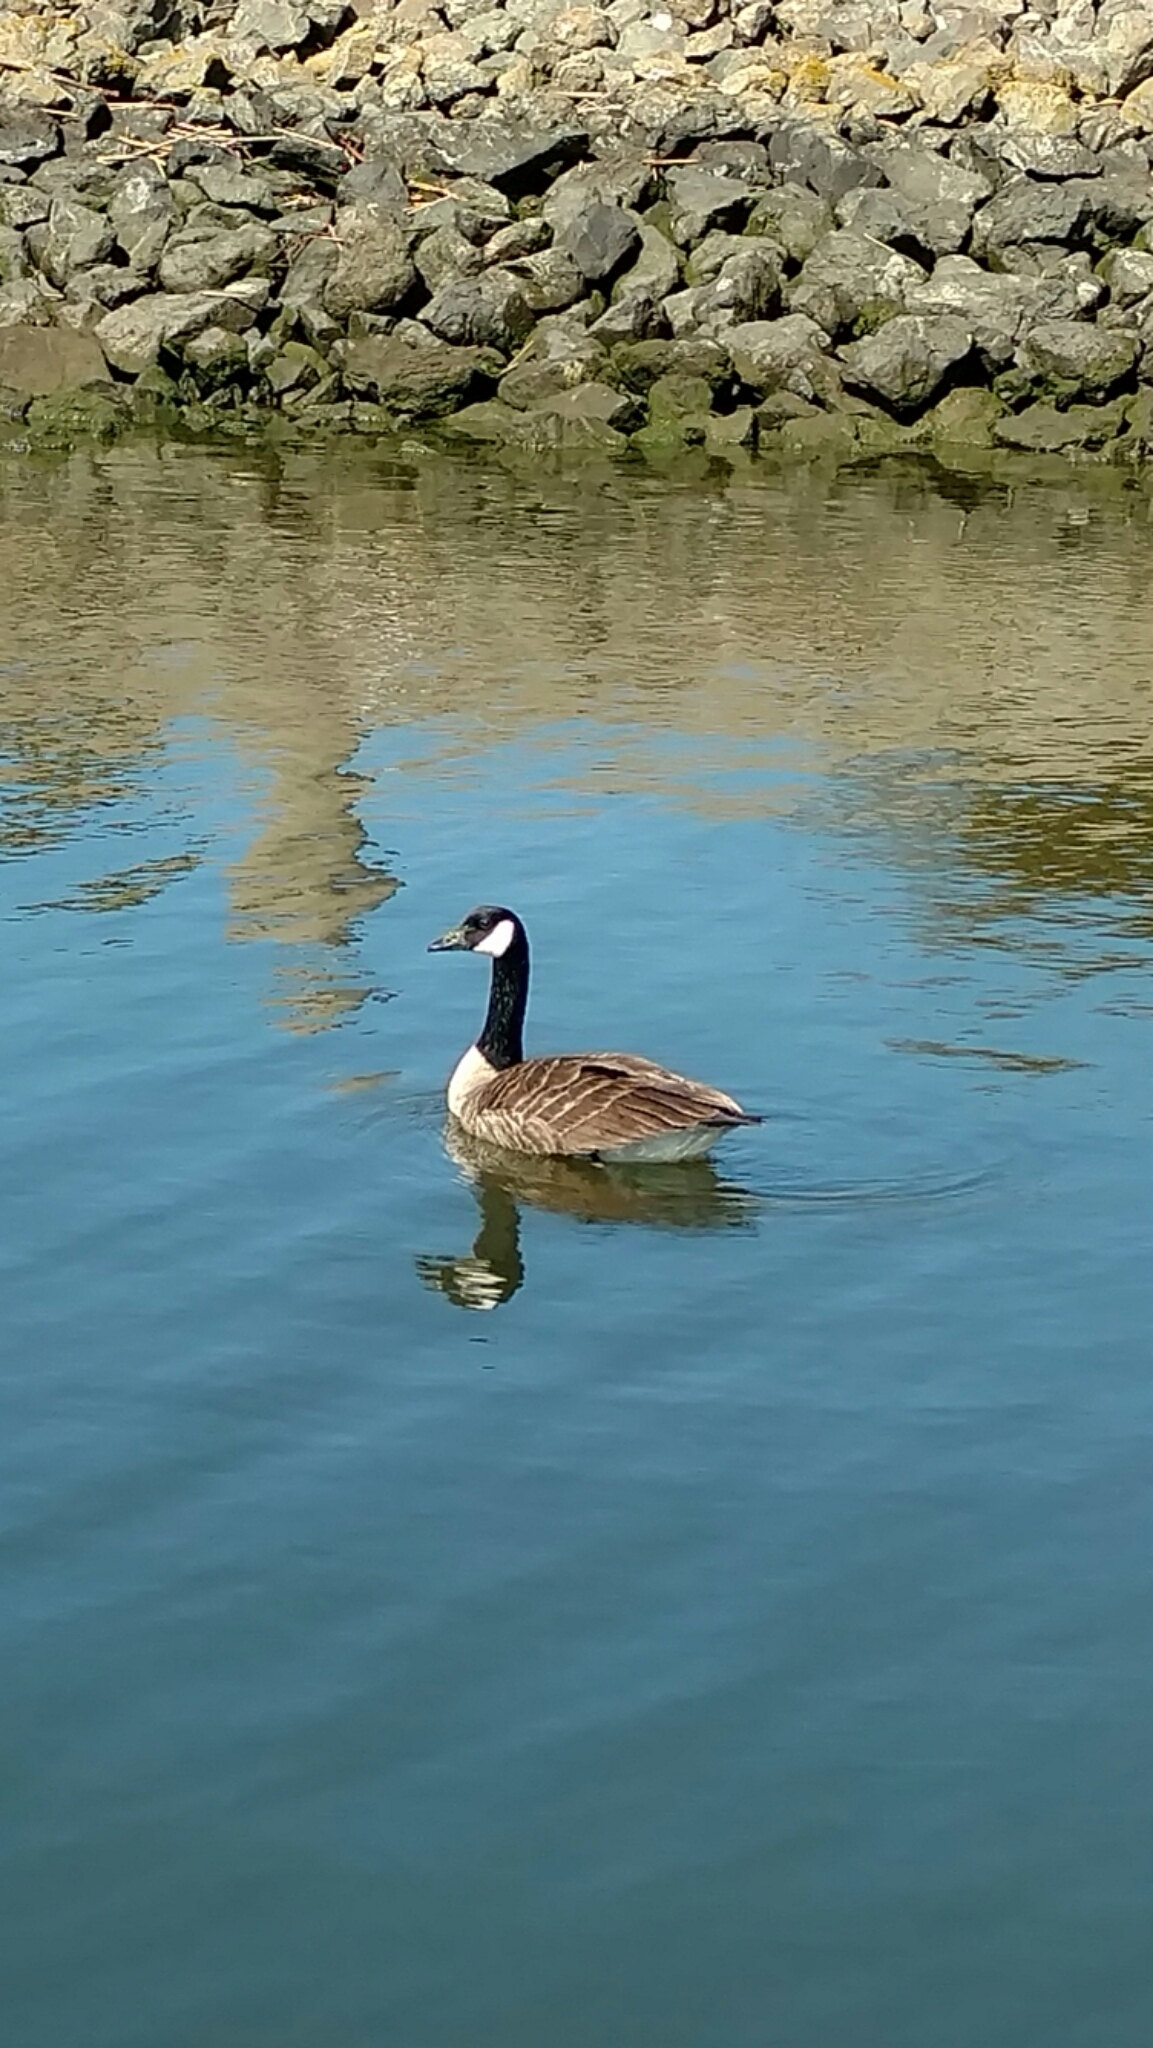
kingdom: Animalia
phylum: Chordata
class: Aves
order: Anseriformes
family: Anatidae
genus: Branta
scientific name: Branta canadensis
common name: Canada goose
